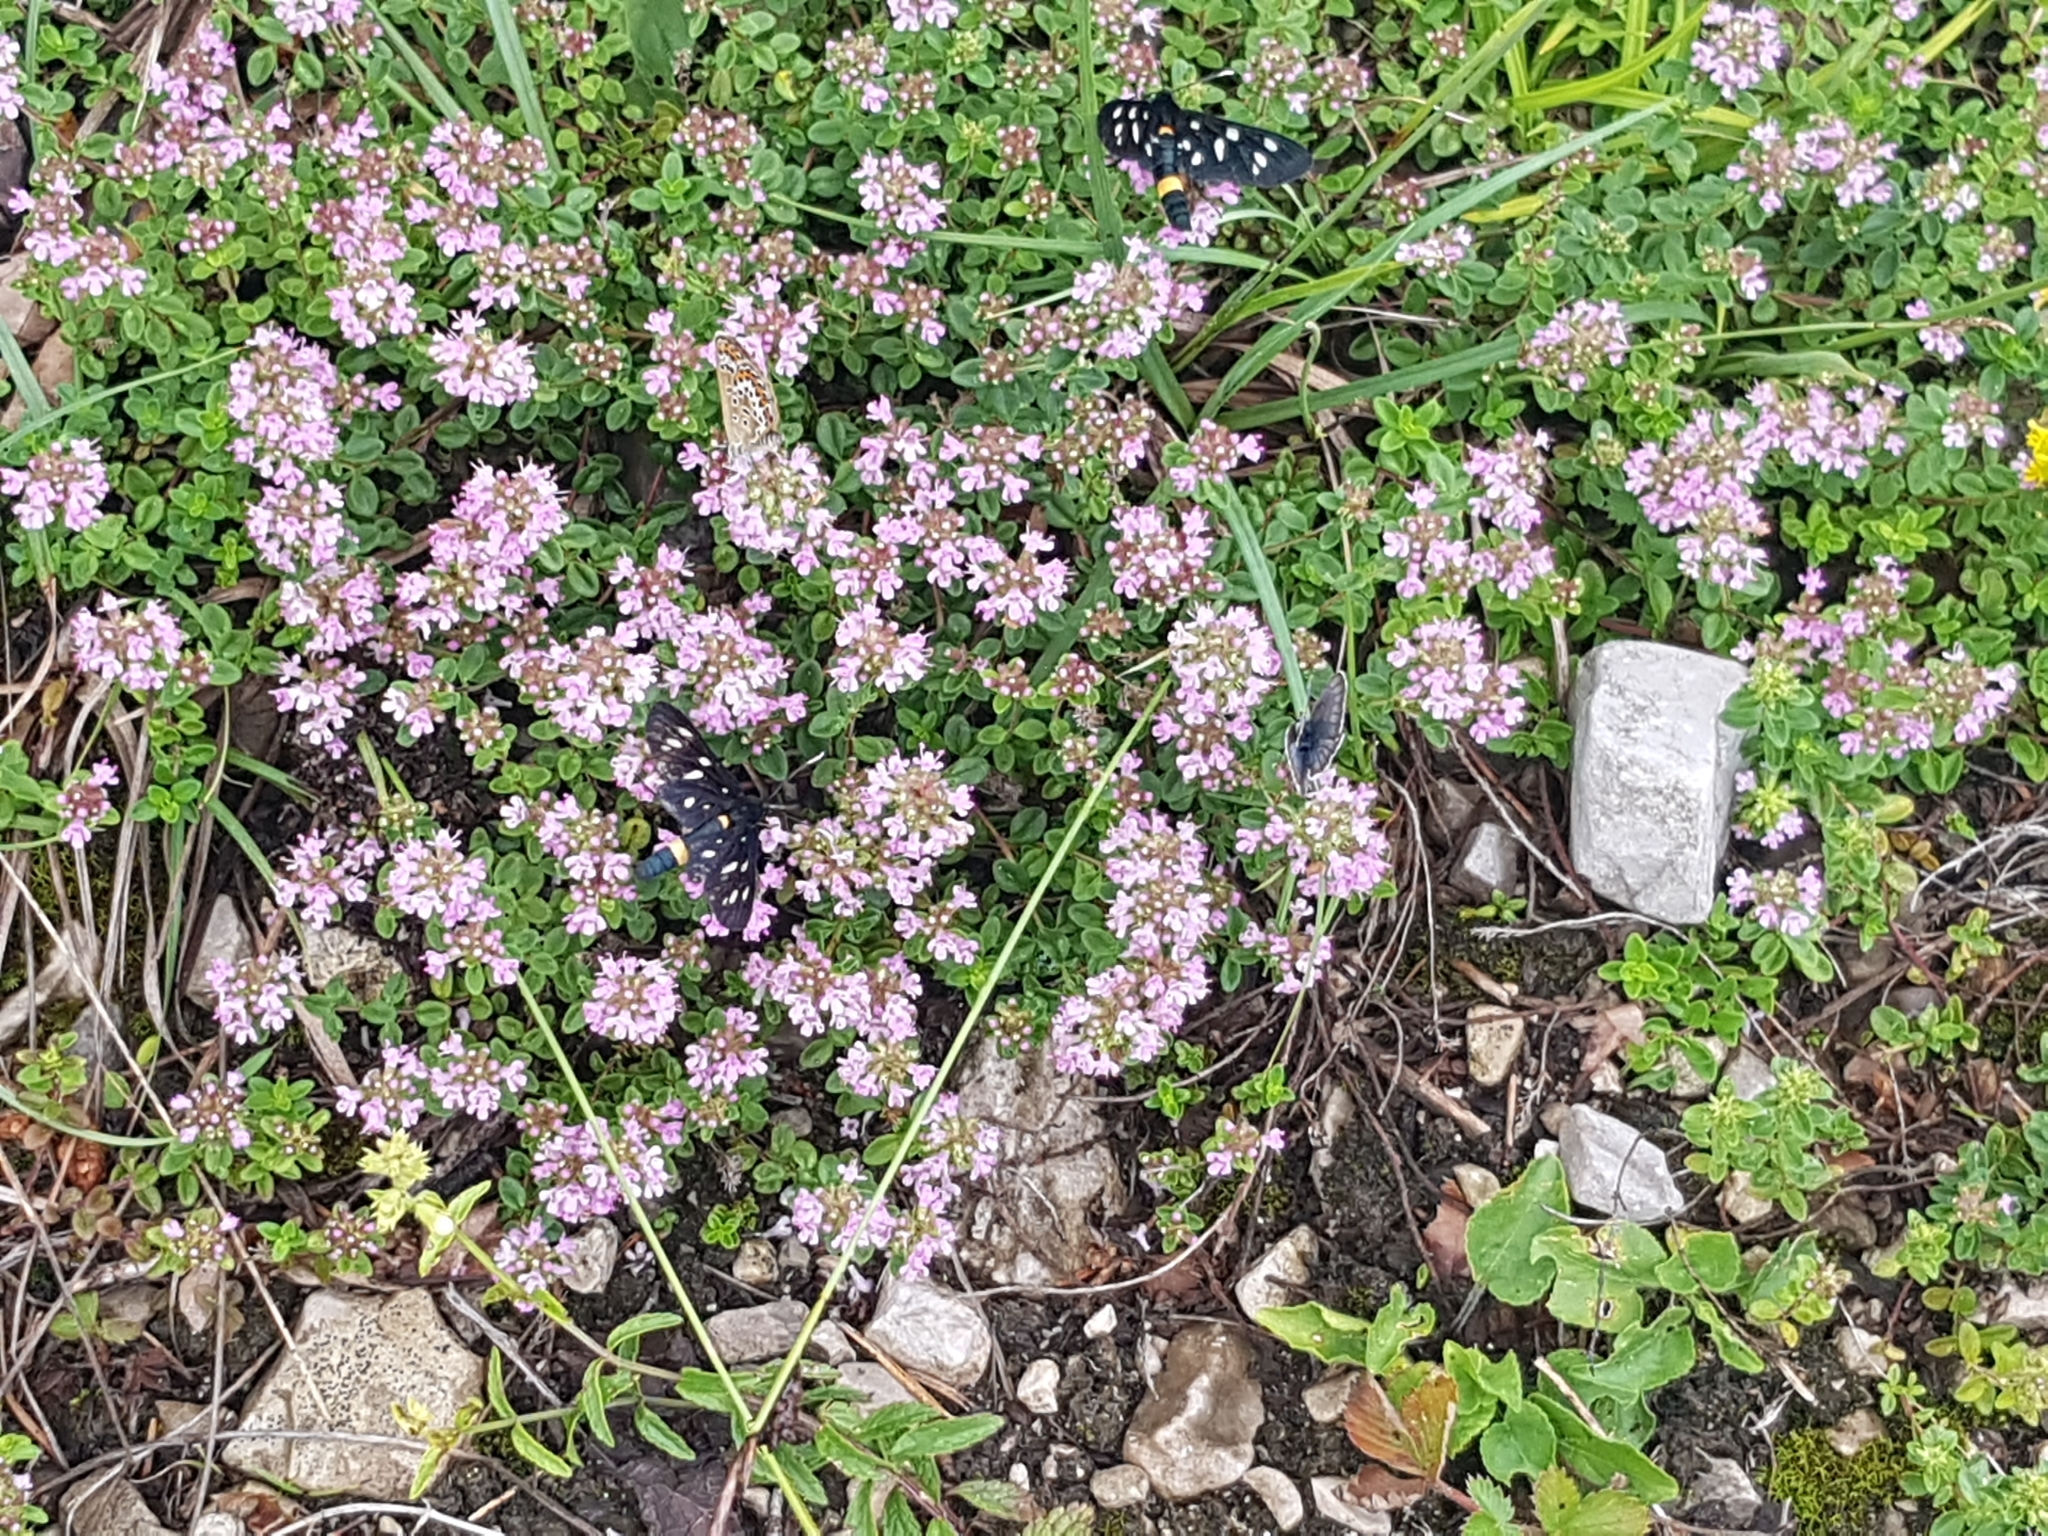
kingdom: Plantae
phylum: Tracheophyta
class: Magnoliopsida
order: Lamiales
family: Lamiaceae
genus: Thymus
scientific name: Thymus pulegioides
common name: Large thyme
